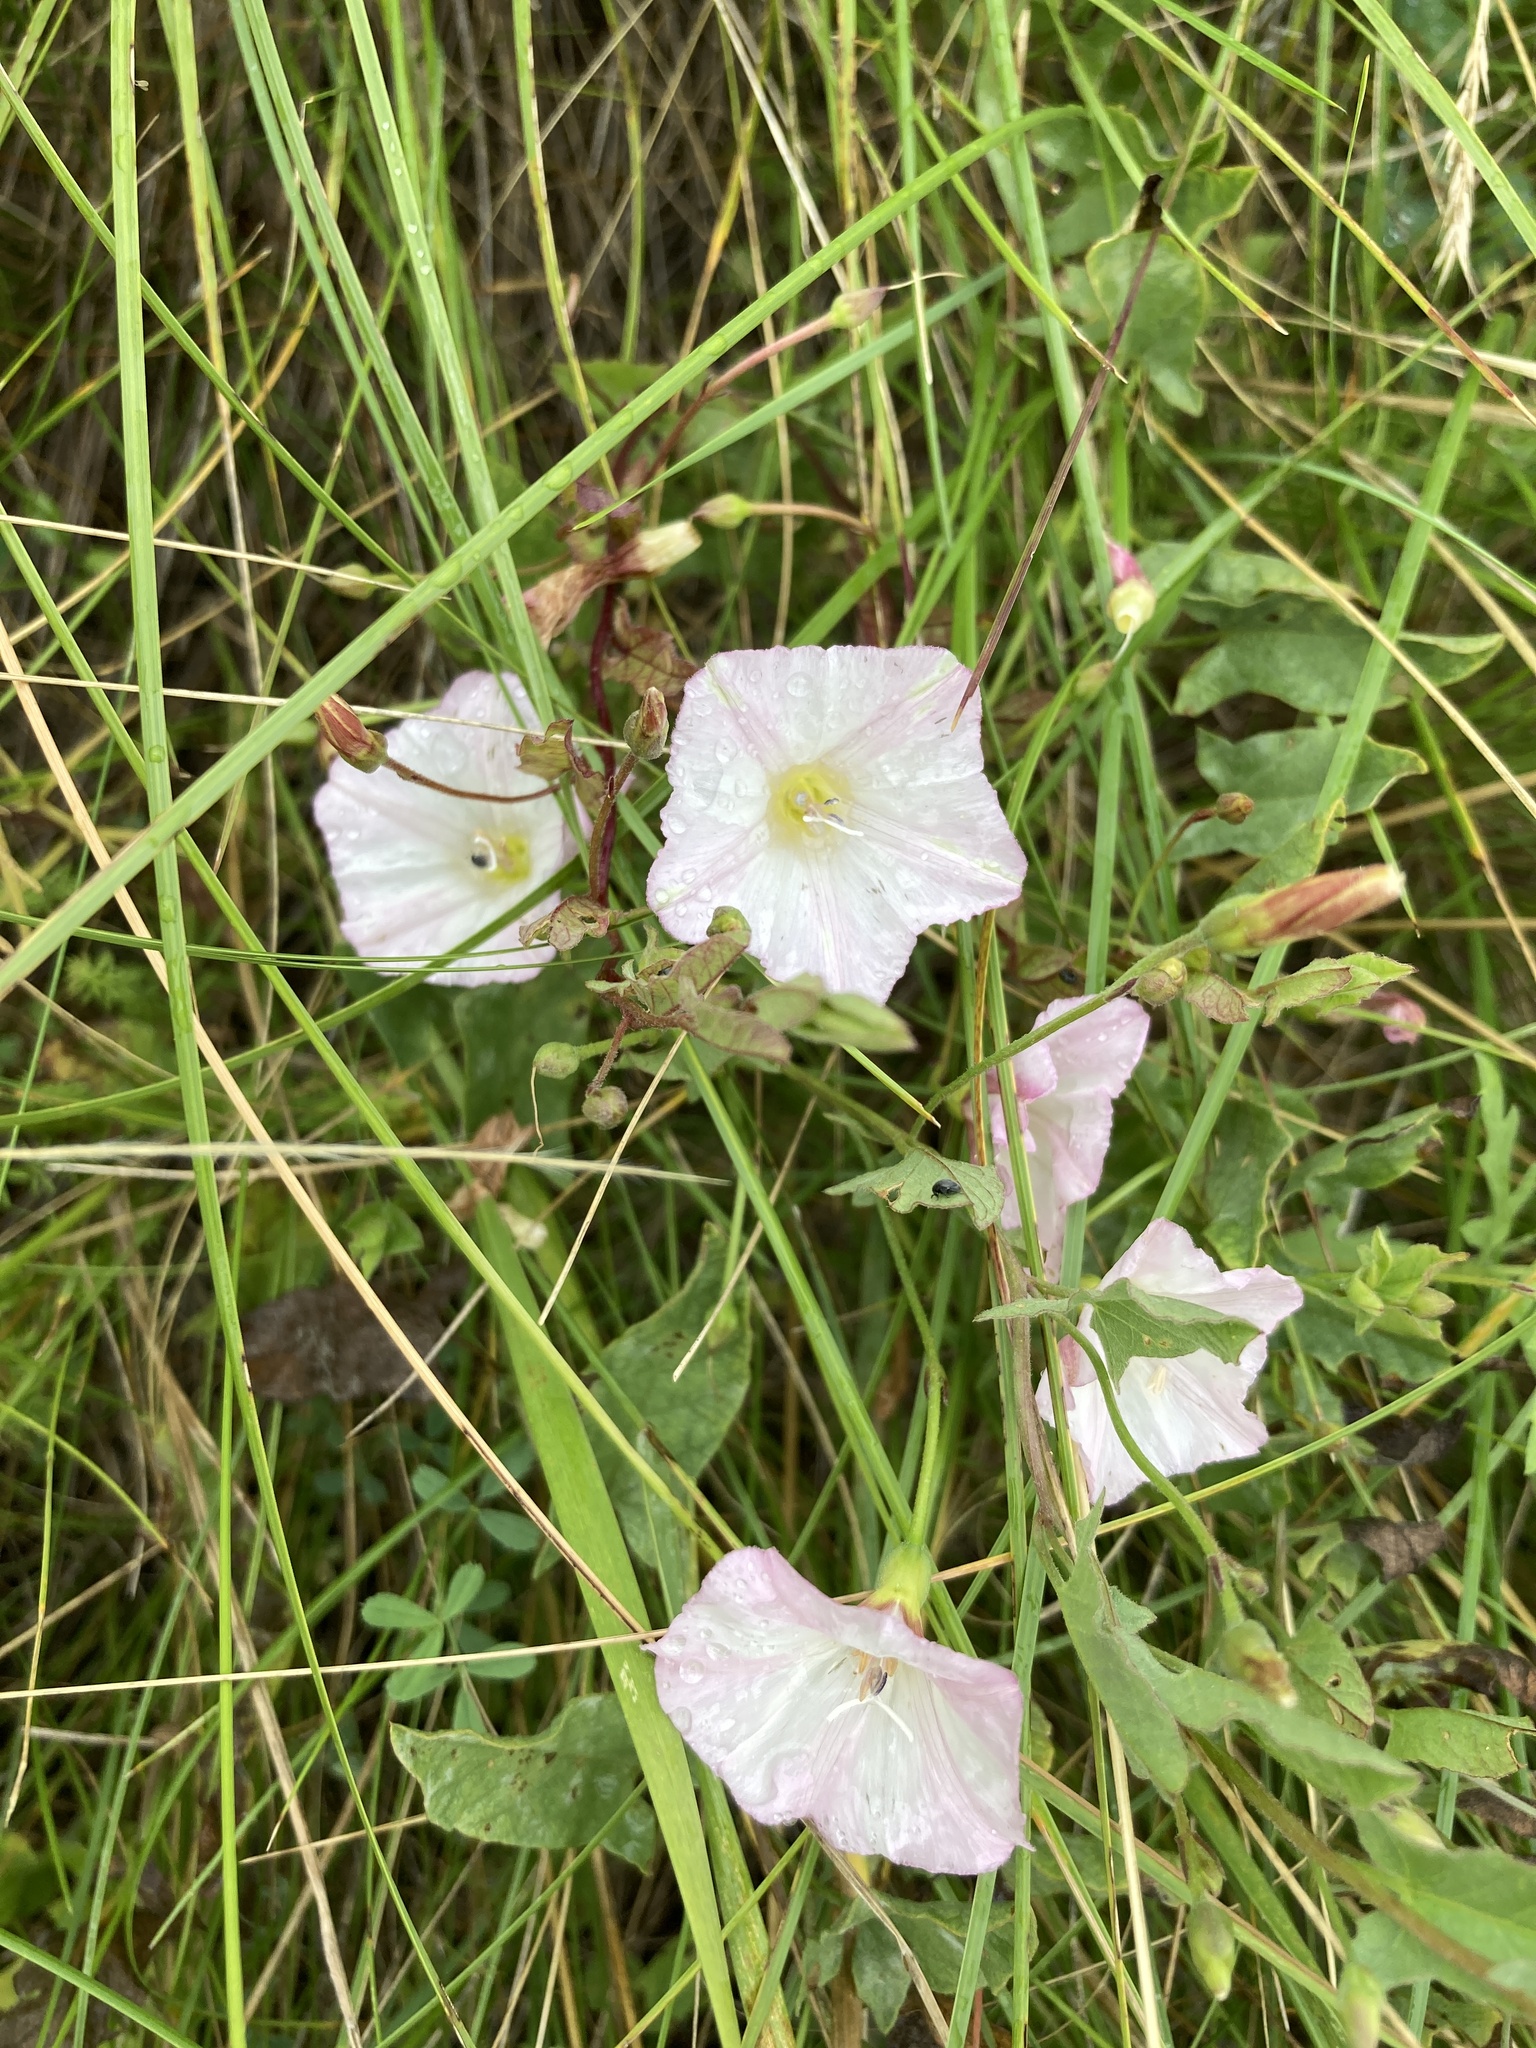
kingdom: Plantae
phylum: Tracheophyta
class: Magnoliopsida
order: Solanales
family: Convolvulaceae
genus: Convolvulus
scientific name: Convolvulus arvensis
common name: Field bindweed
